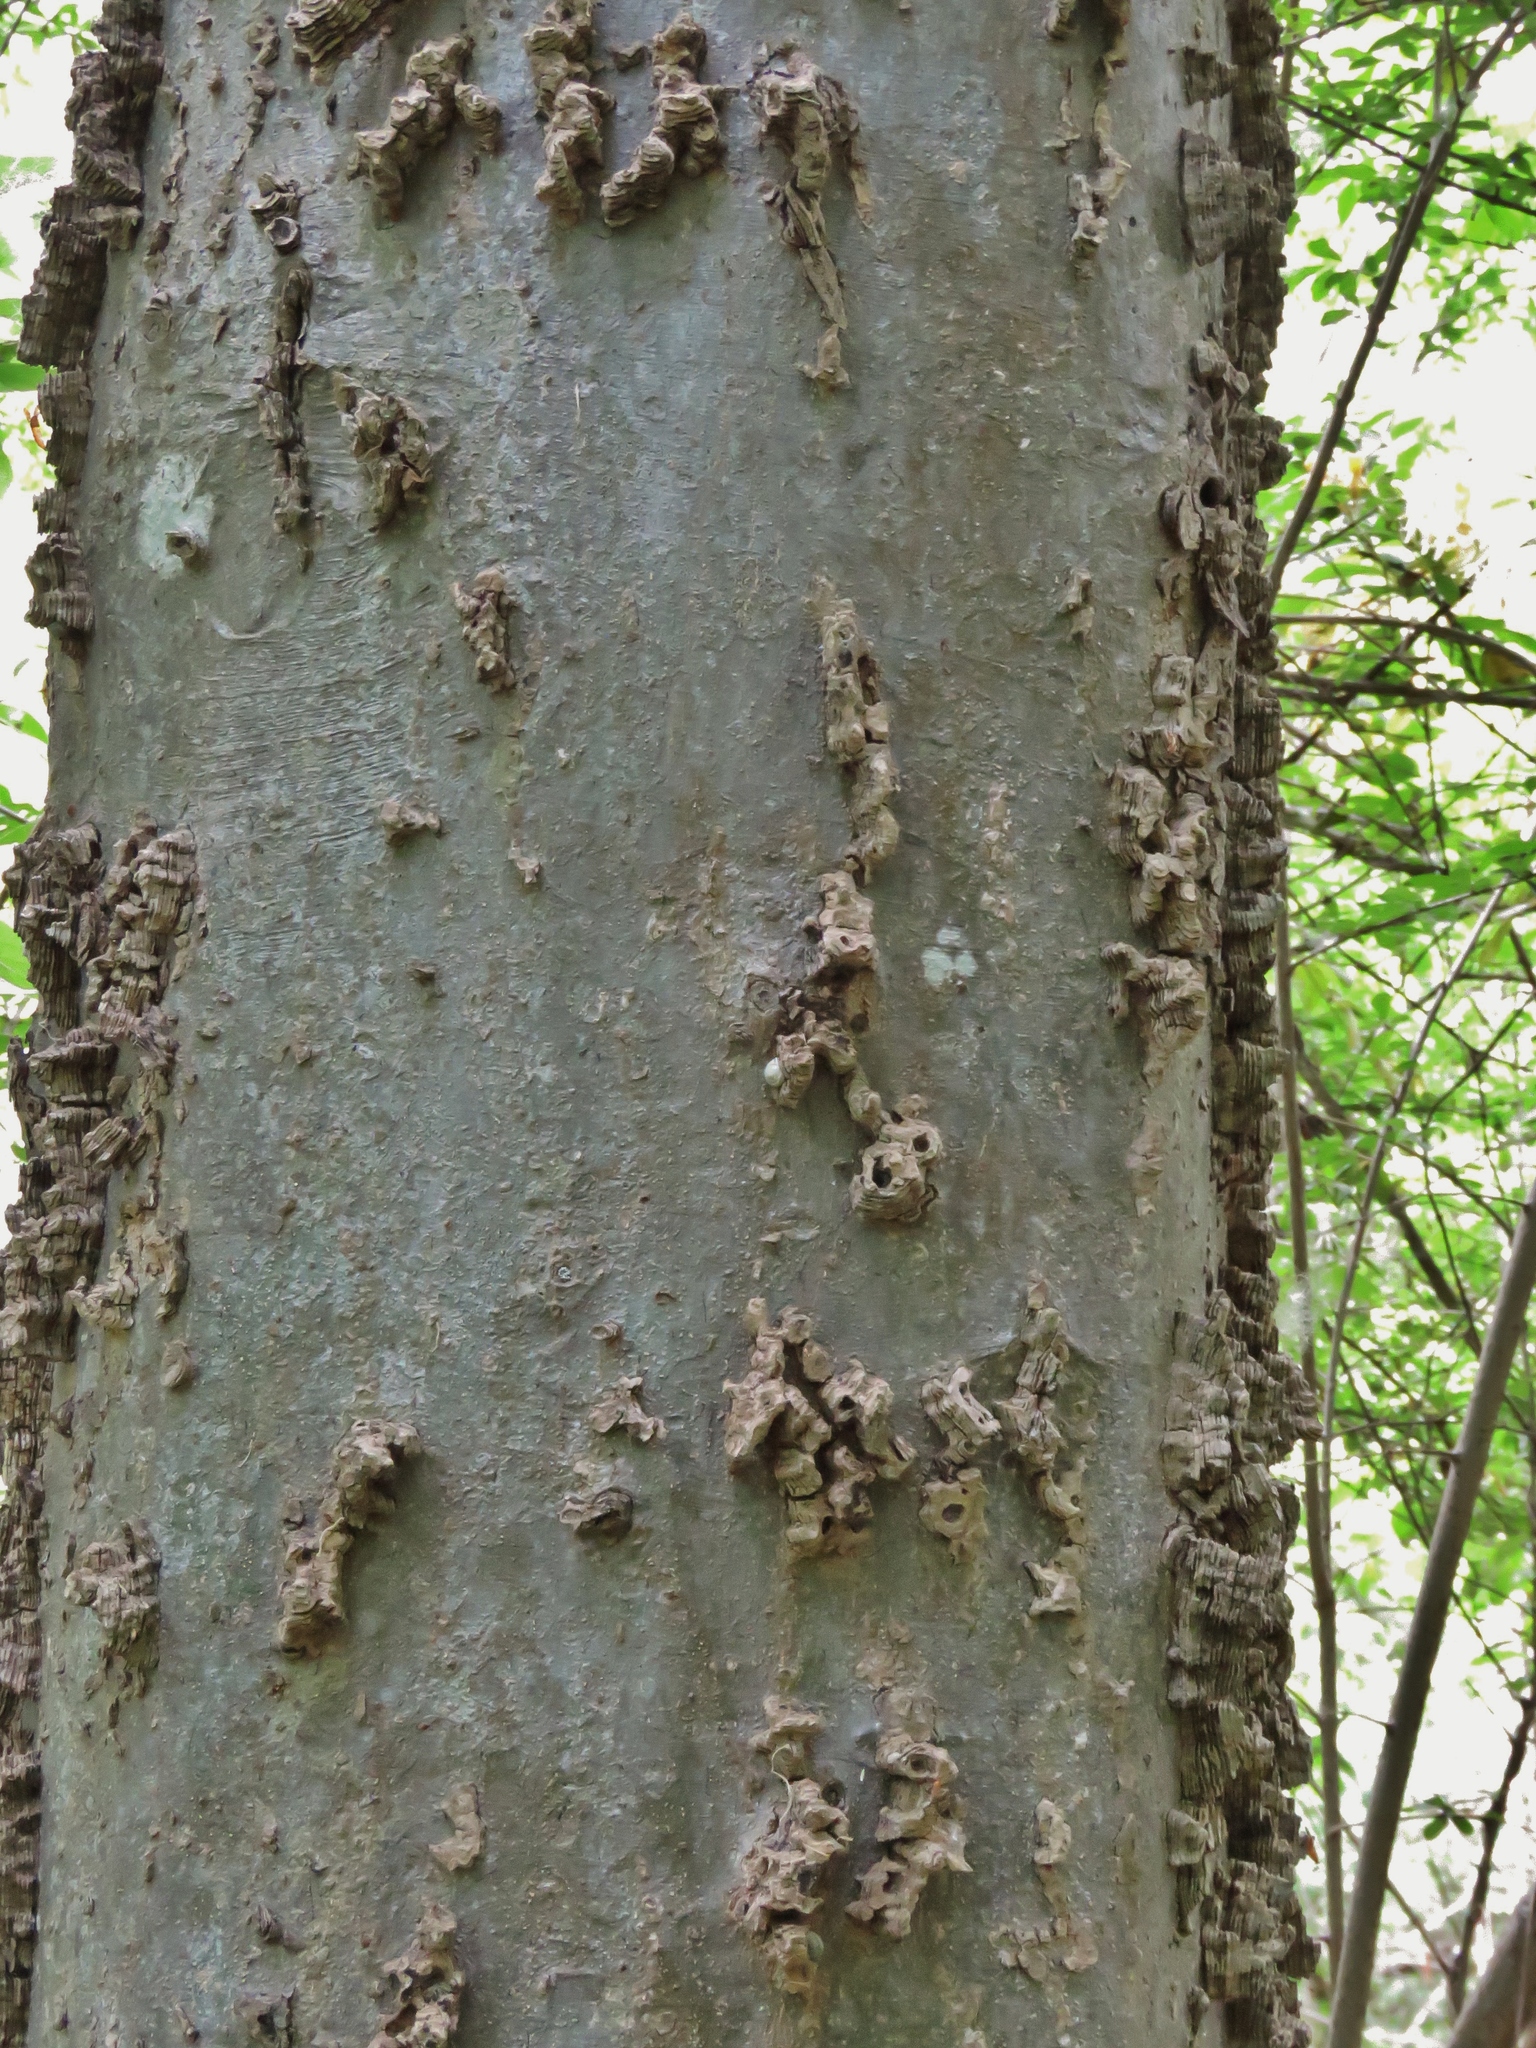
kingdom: Plantae
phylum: Tracheophyta
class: Magnoliopsida
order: Rosales
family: Cannabaceae
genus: Celtis
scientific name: Celtis laevigata
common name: Sugarberry
